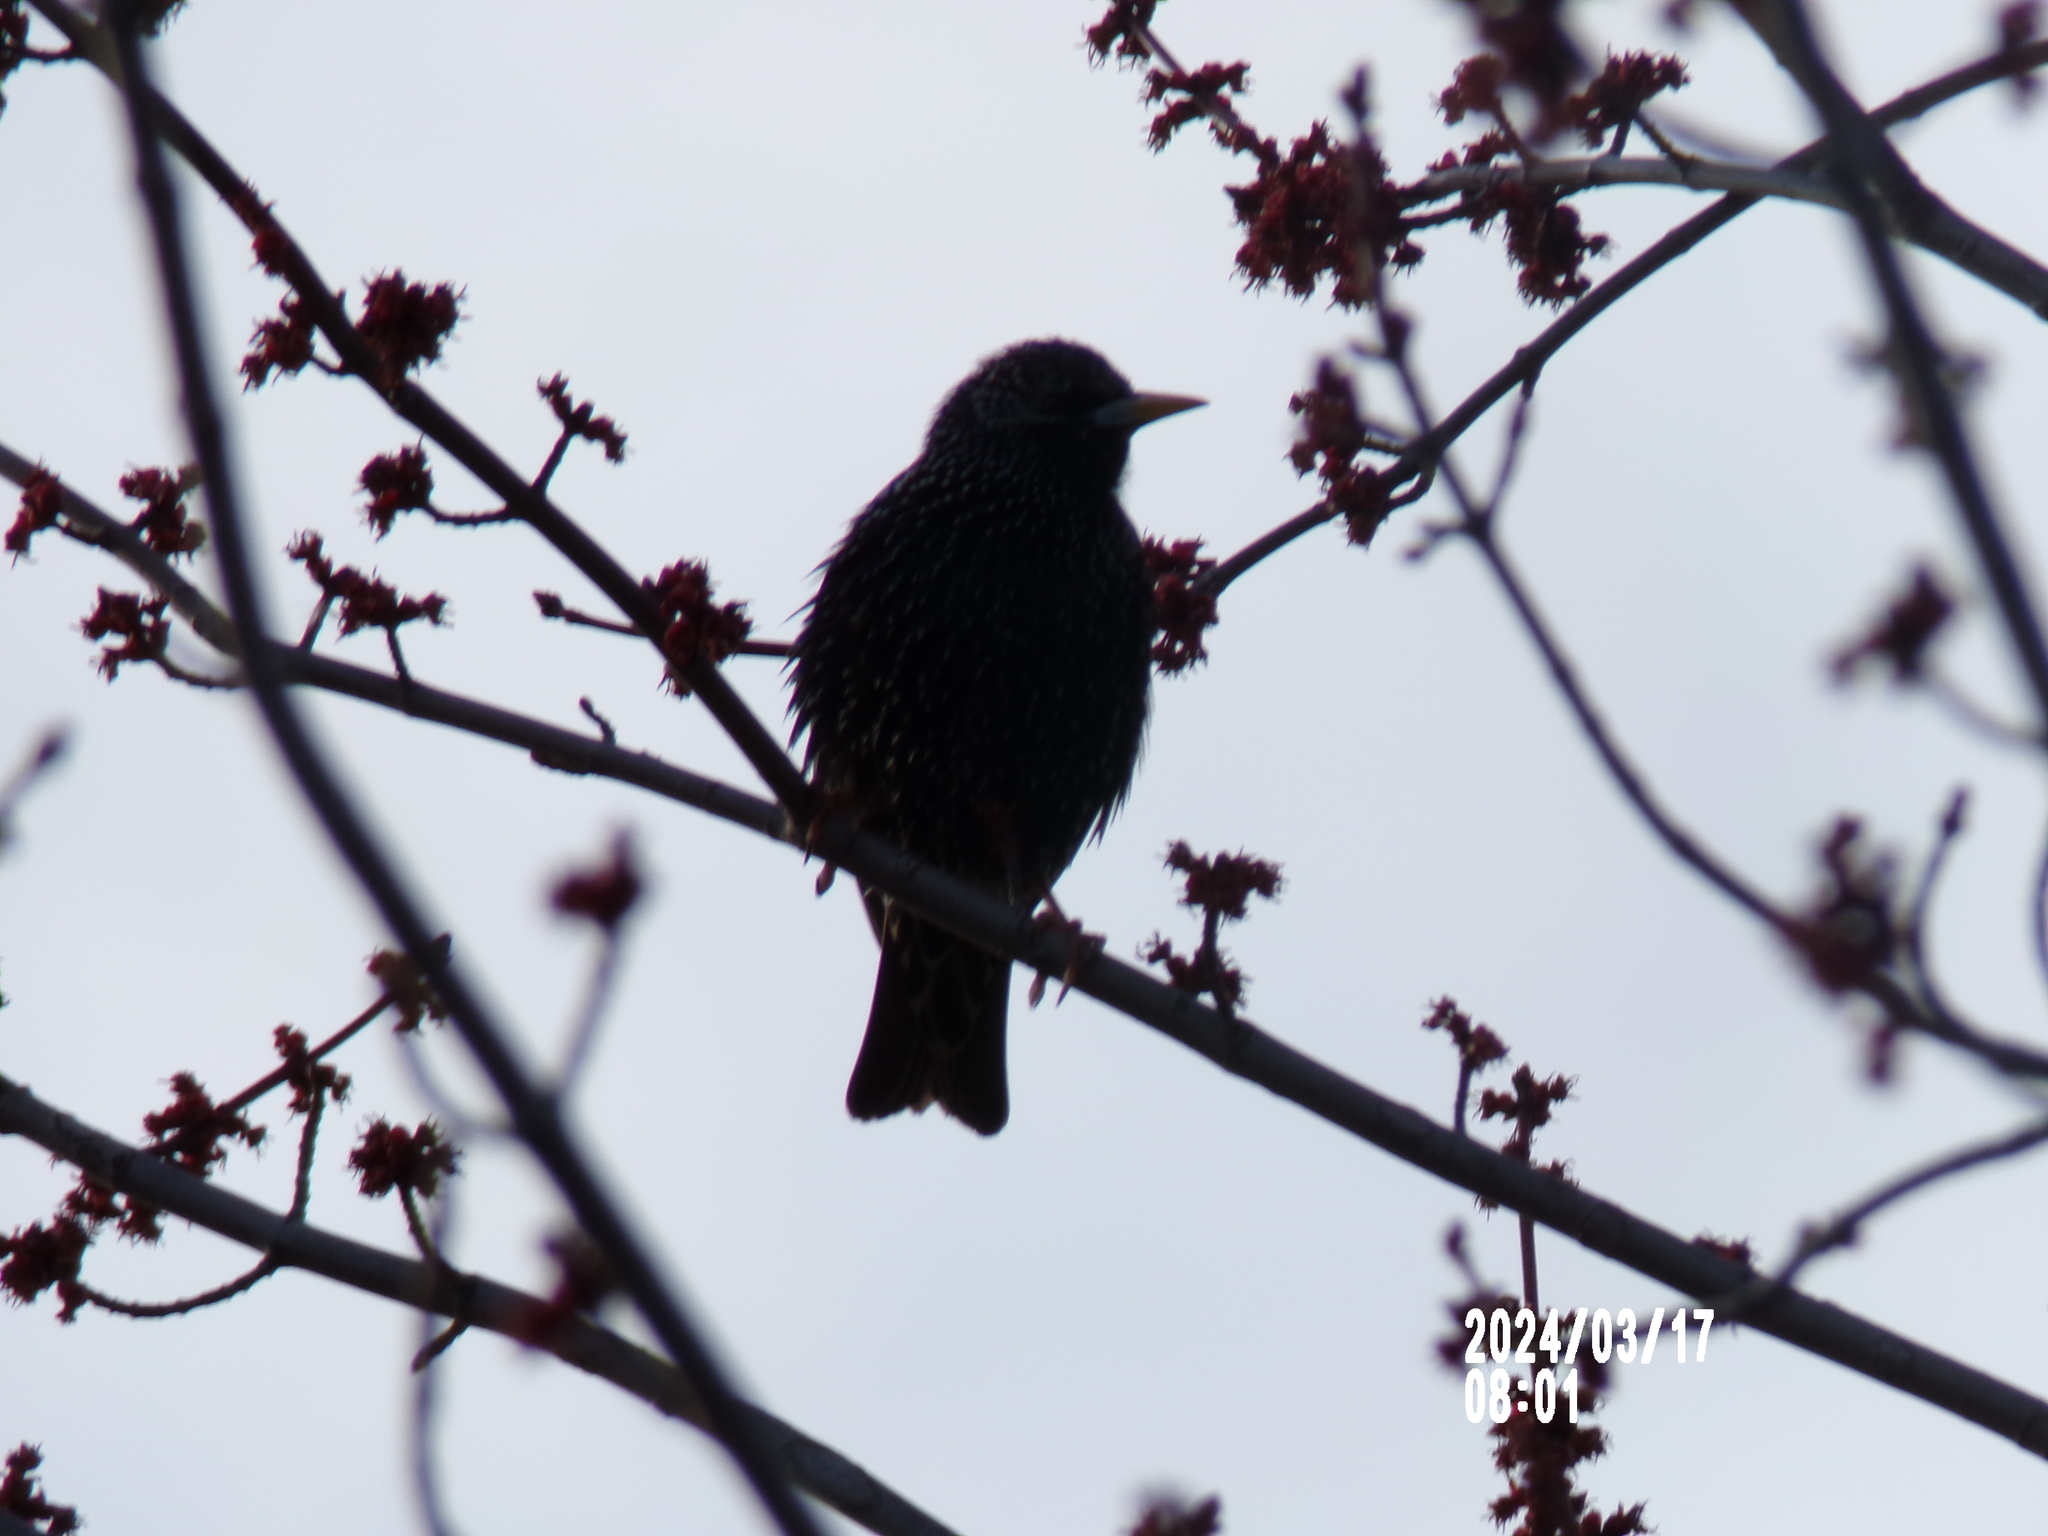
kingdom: Animalia
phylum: Chordata
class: Aves
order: Passeriformes
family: Sturnidae
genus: Sturnus
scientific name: Sturnus vulgaris
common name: Common starling
